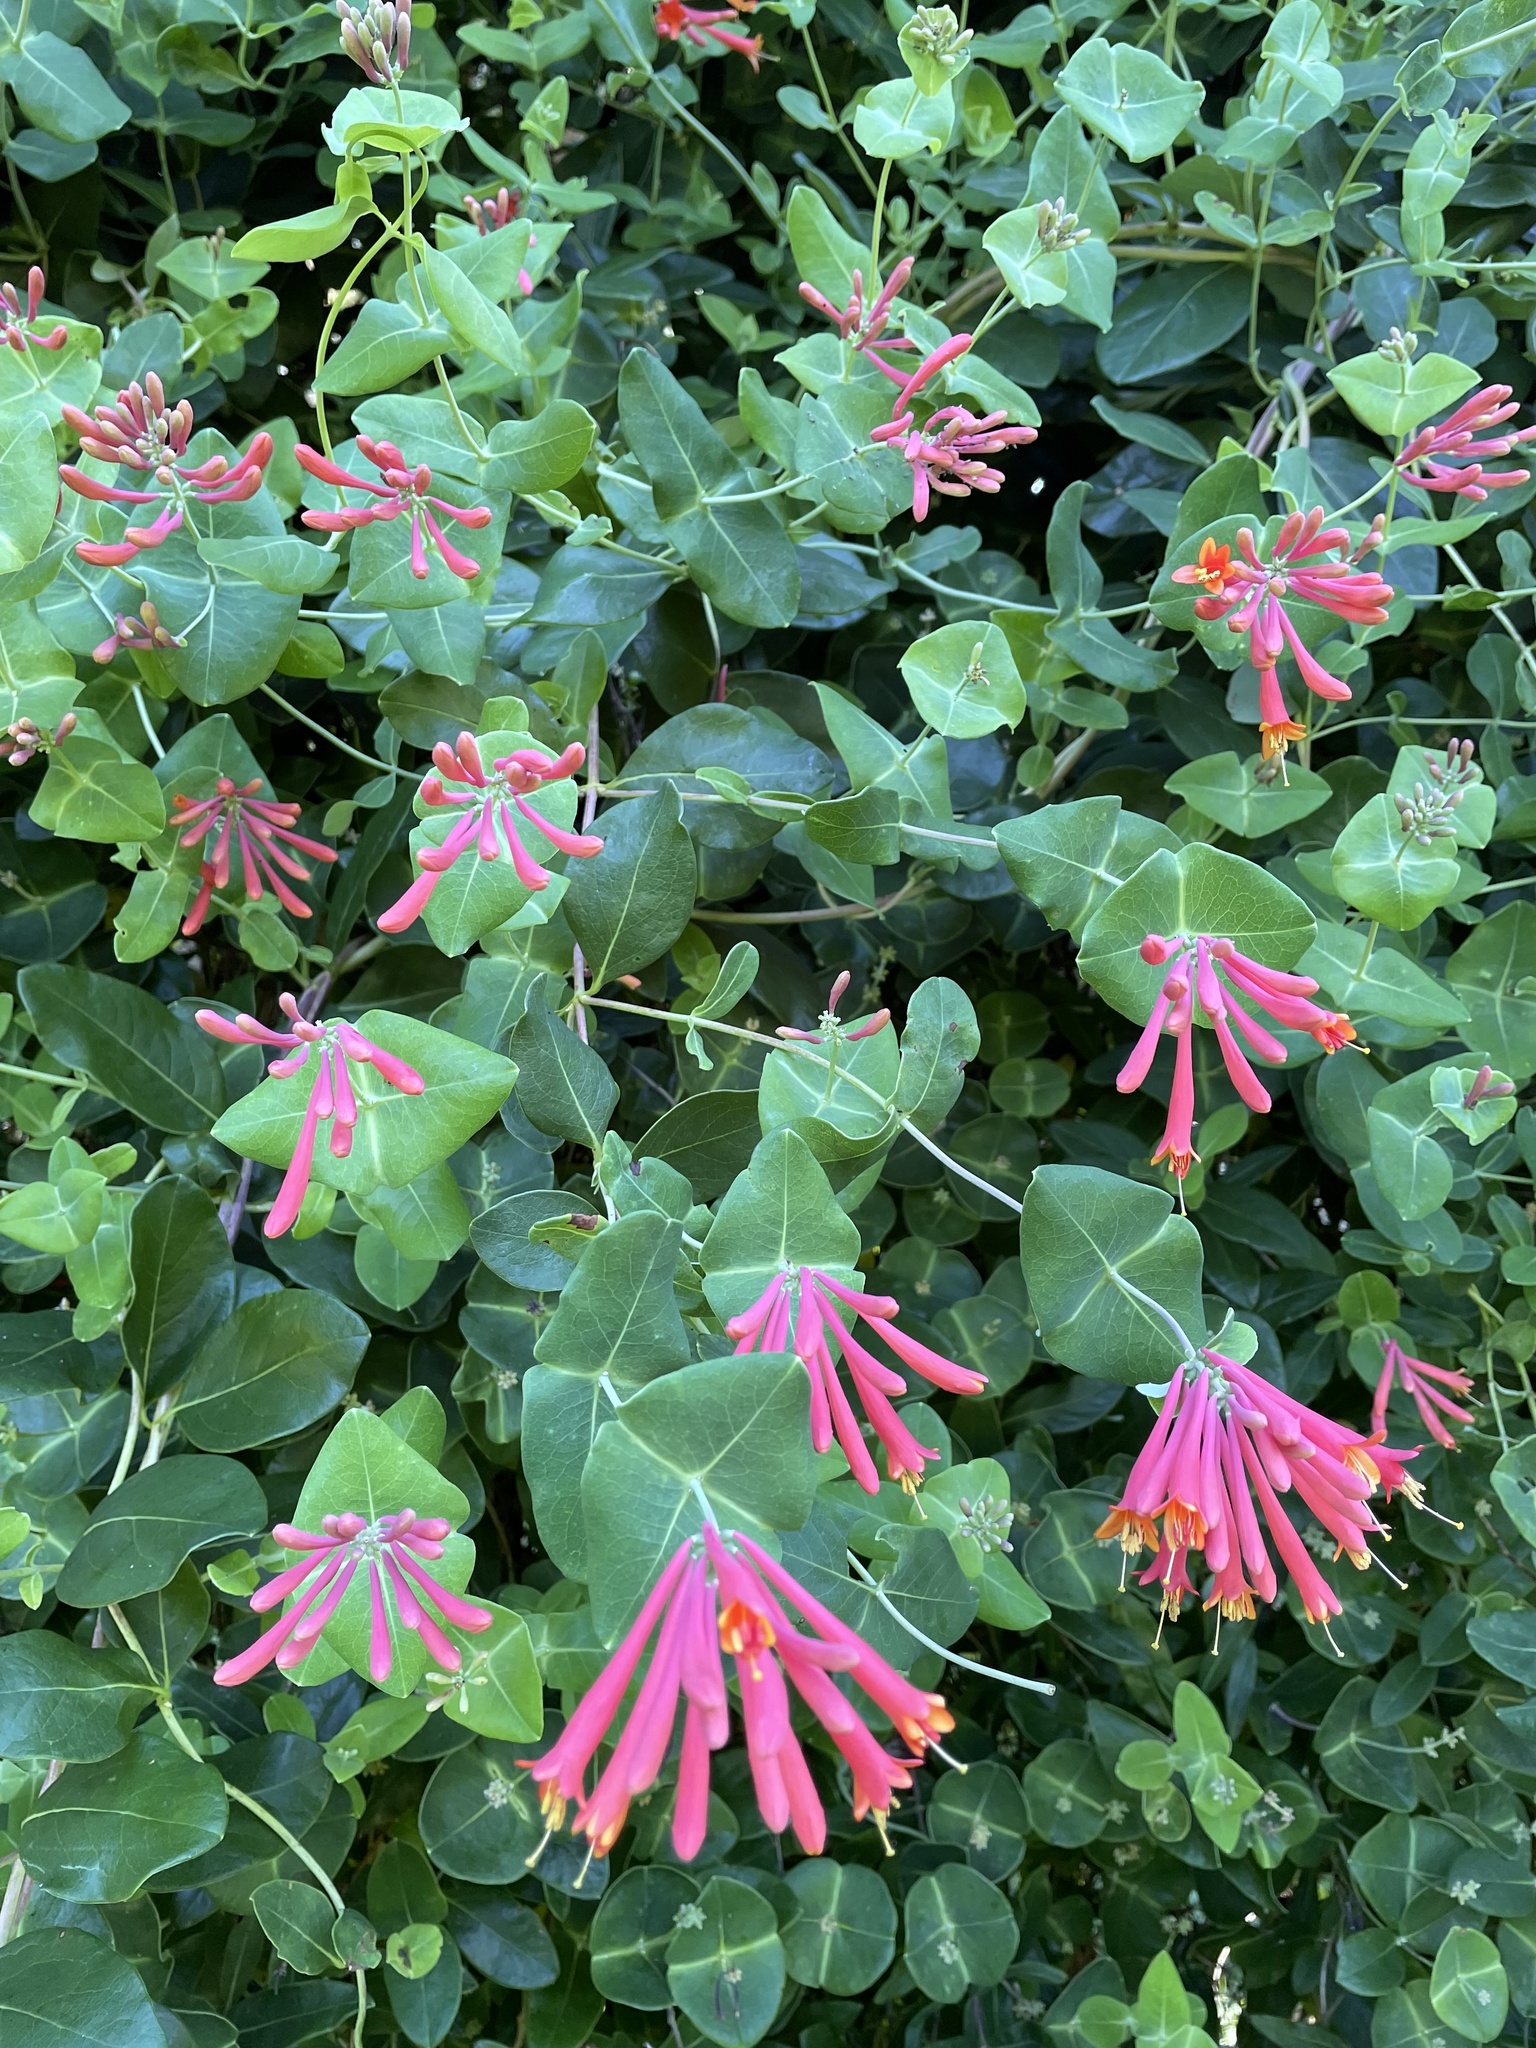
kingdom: Plantae
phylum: Tracheophyta
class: Magnoliopsida
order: Dipsacales
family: Caprifoliaceae
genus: Lonicera
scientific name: Lonicera sempervirens
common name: Coral honeysuckle
